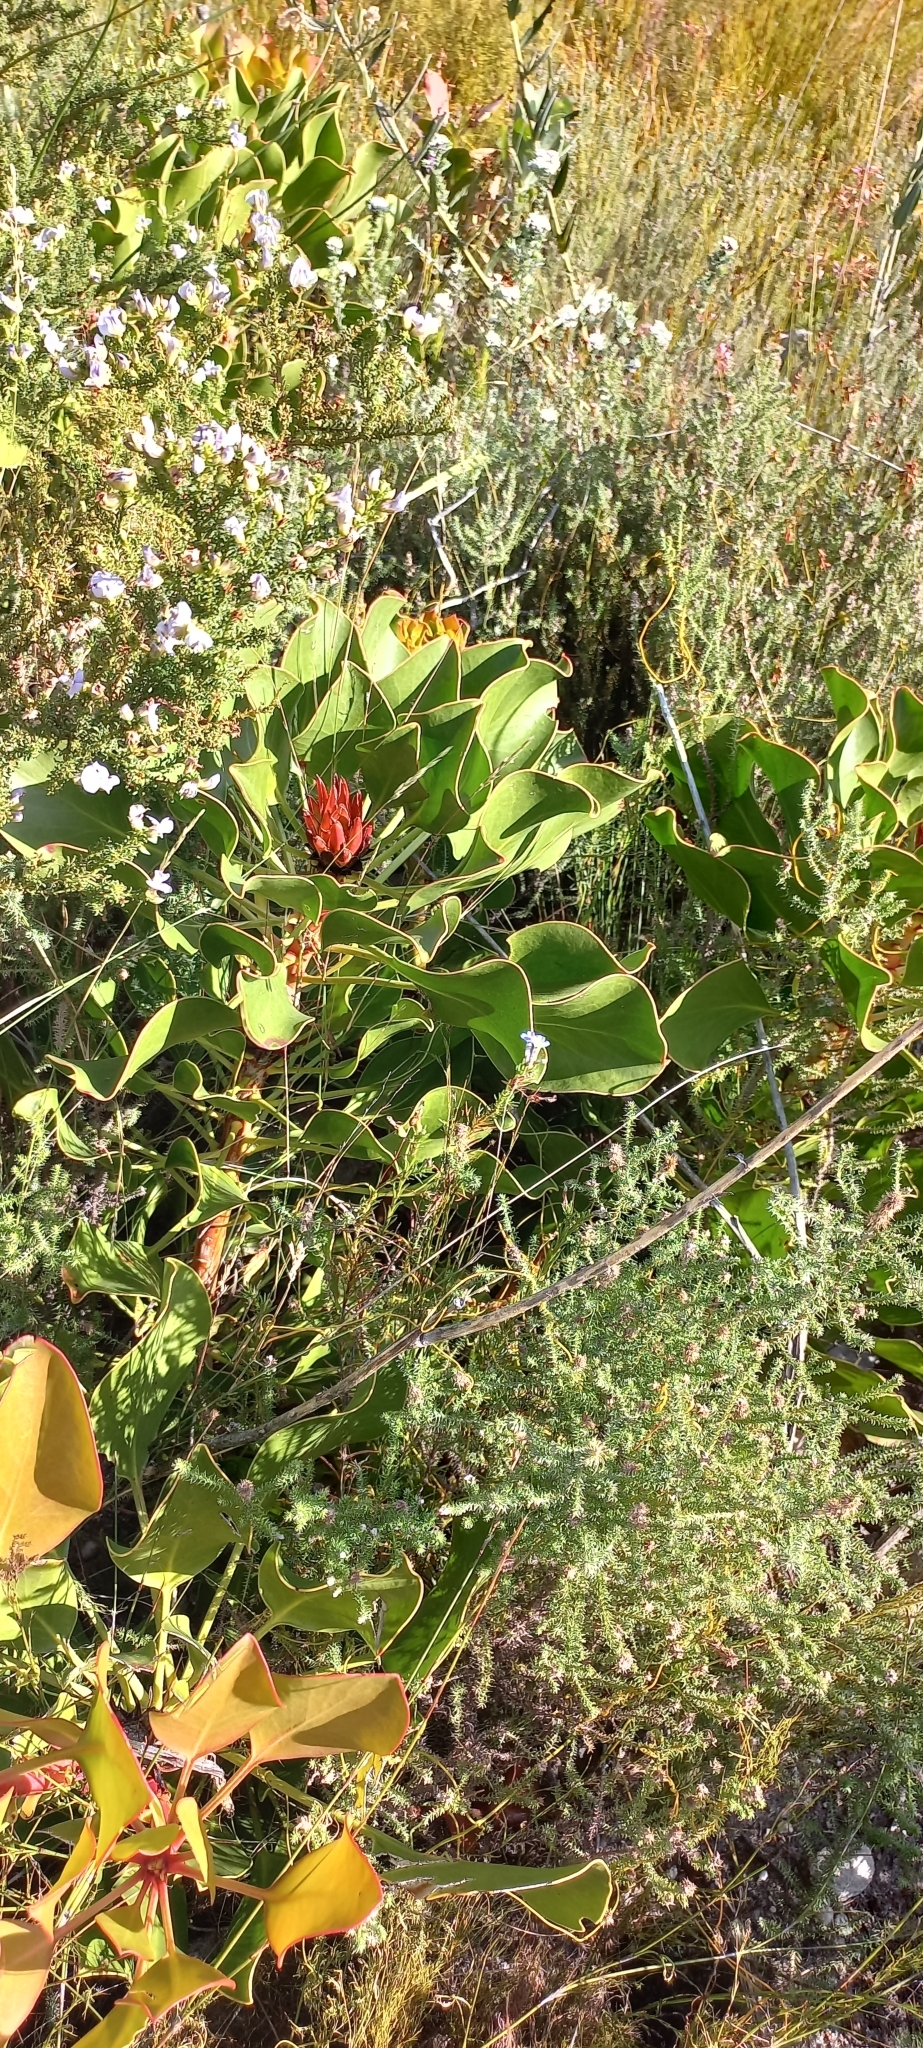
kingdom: Plantae
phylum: Tracheophyta
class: Magnoliopsida
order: Proteales
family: Proteaceae
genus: Protea
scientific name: Protea cynaroides
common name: King protea
